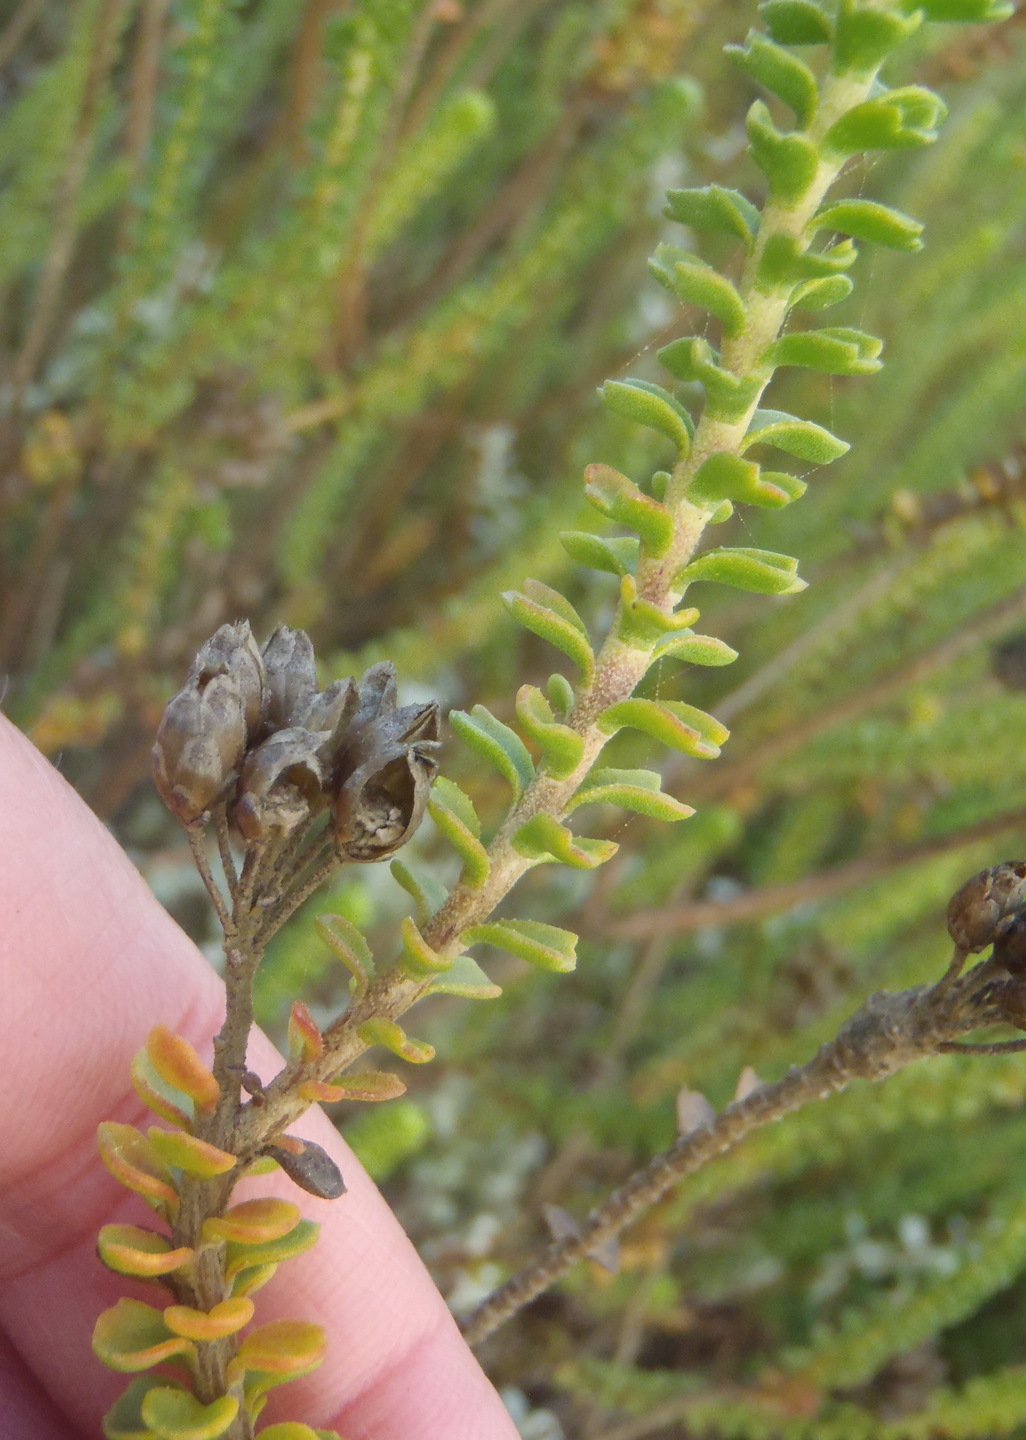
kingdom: Plantae
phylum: Tracheophyta
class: Magnoliopsida
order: Asterales
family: Asteraceae
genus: Athanasia
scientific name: Athanasia quinquedentata
